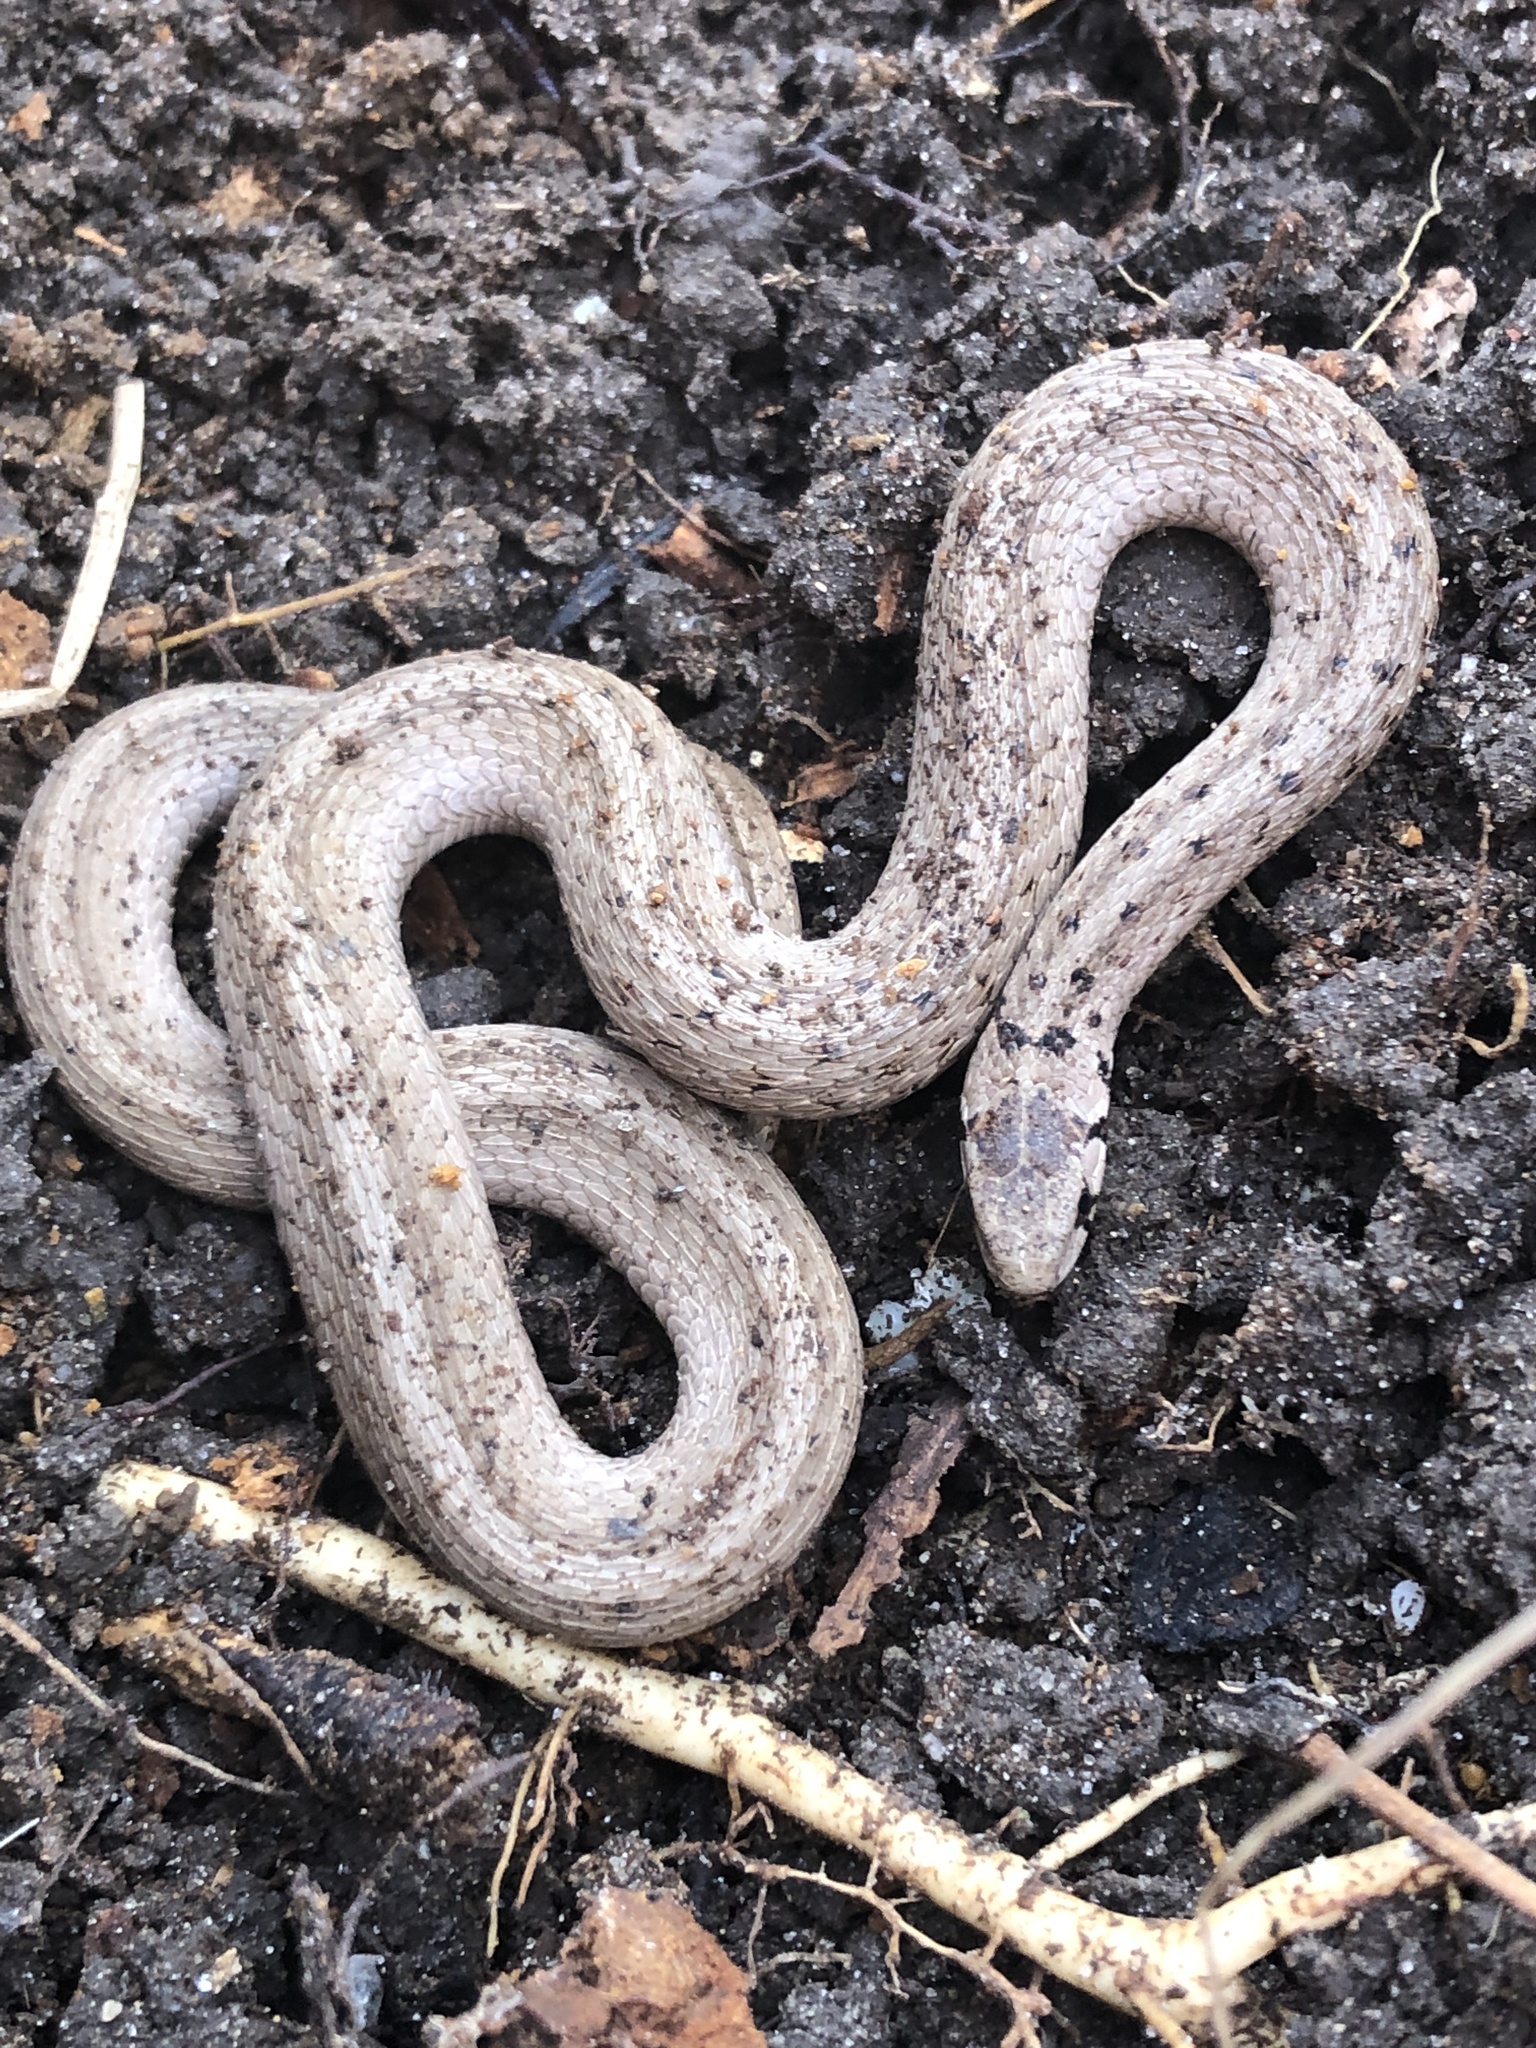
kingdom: Animalia
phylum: Chordata
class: Squamata
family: Colubridae
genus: Storeria
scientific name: Storeria dekayi
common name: (dekay’s) brown snake
